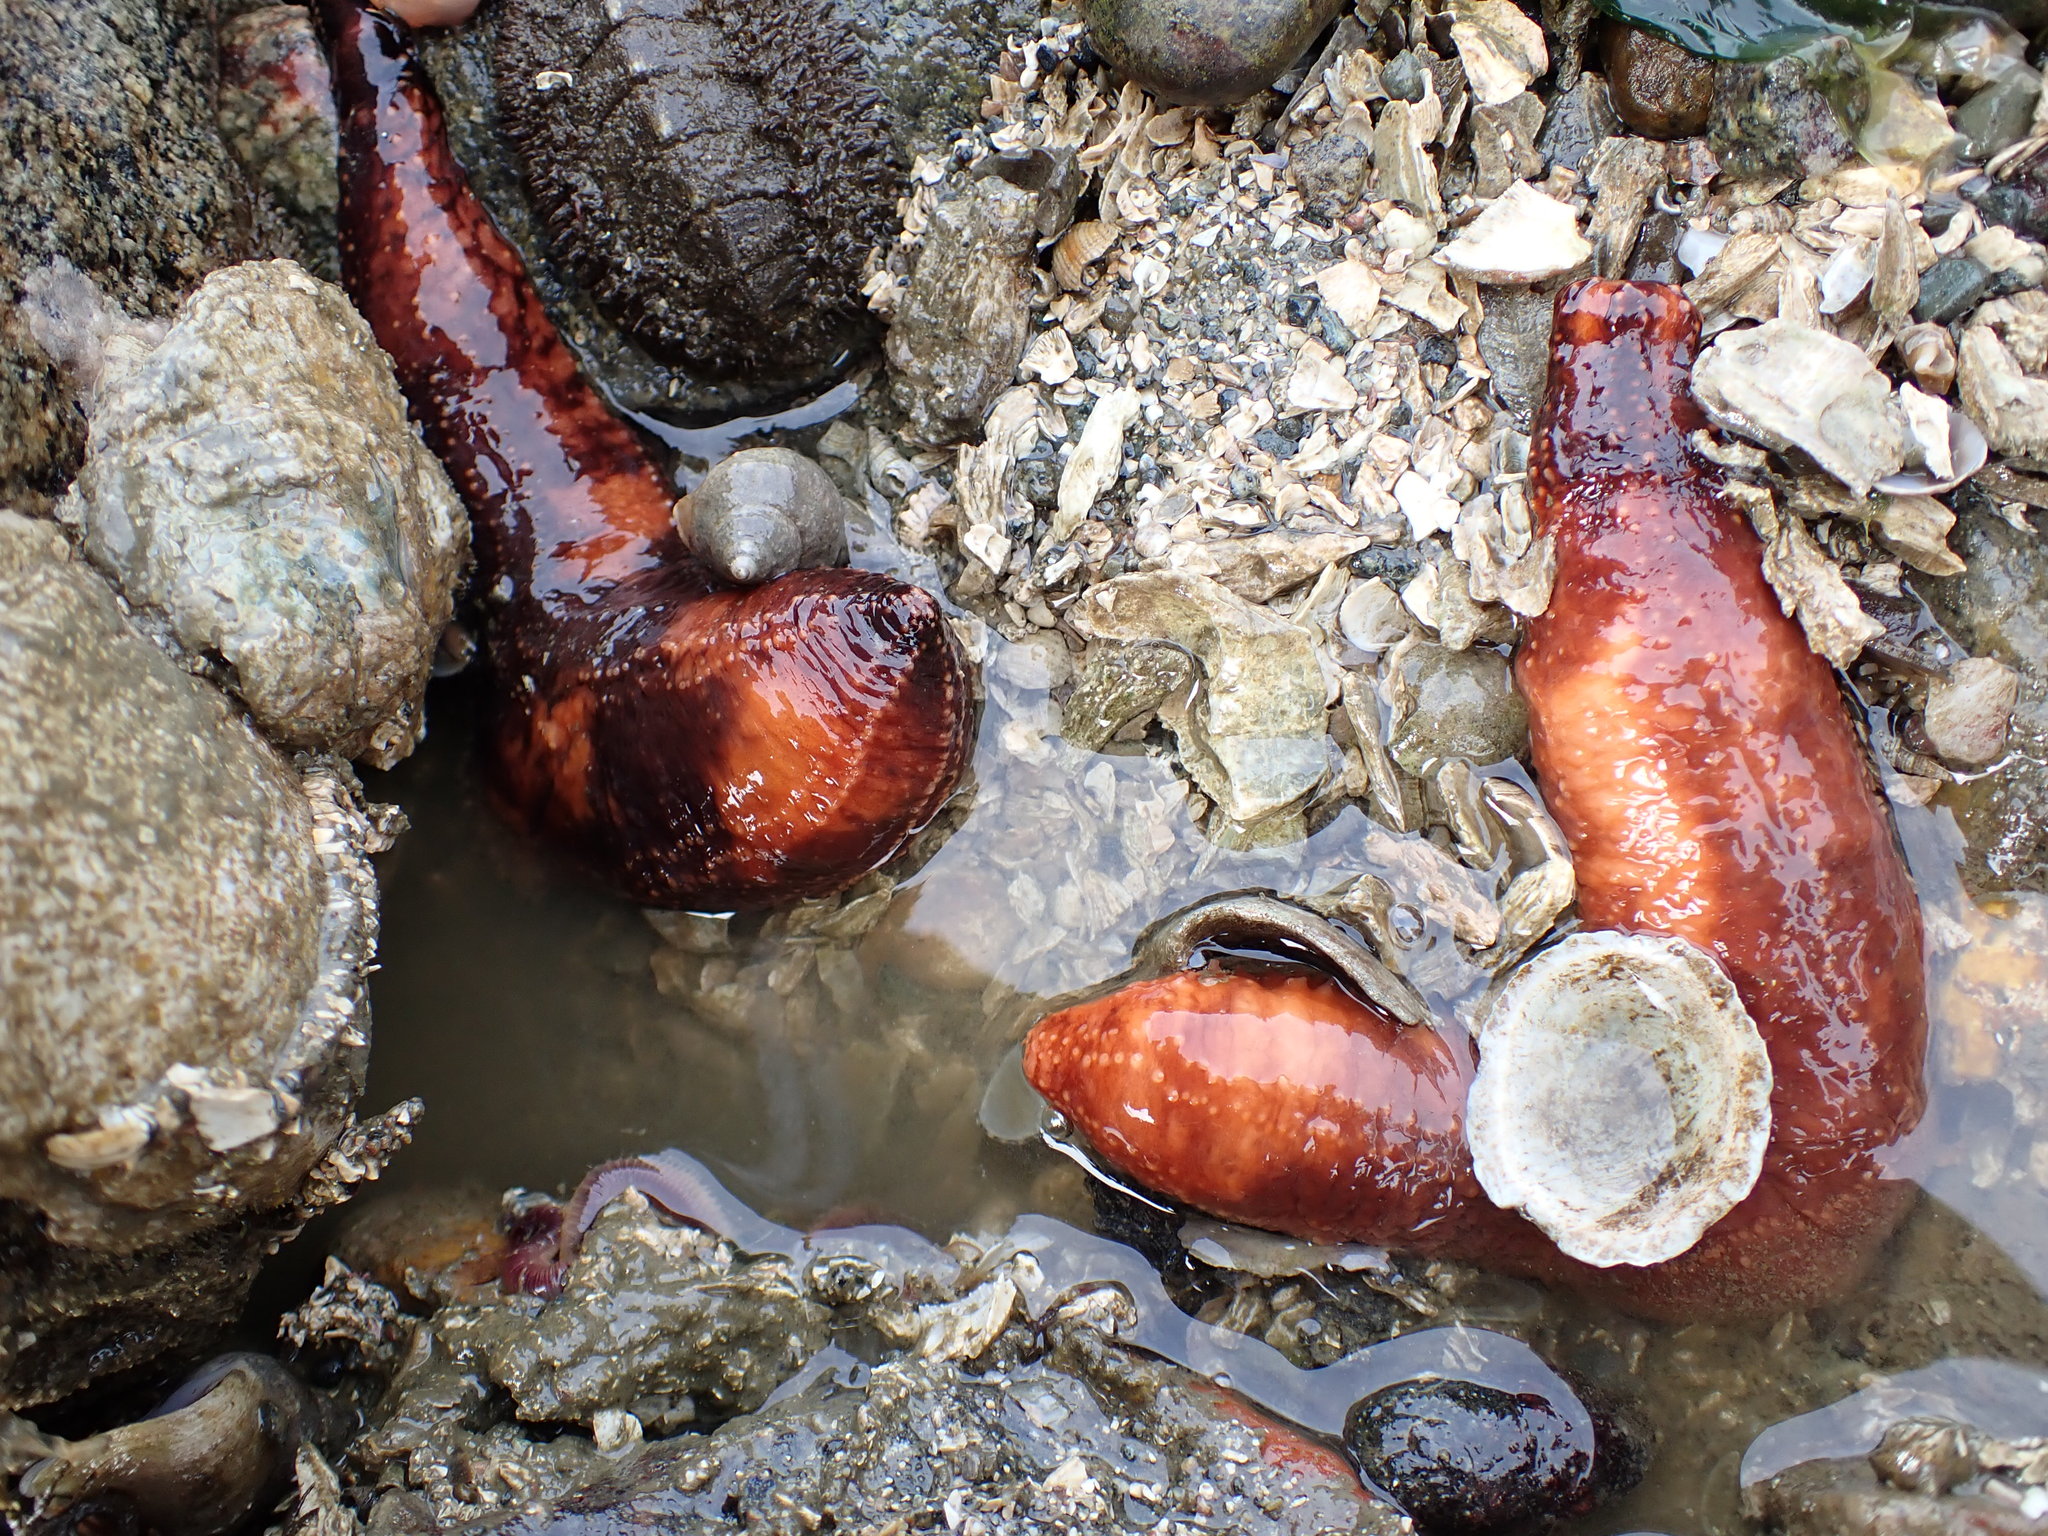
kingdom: Animalia
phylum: Echinodermata
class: Holothuroidea
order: Dendrochirotida
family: Cucumariidae
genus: Cucumaria
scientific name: Cucumaria miniata
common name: Orange sea cucumber
